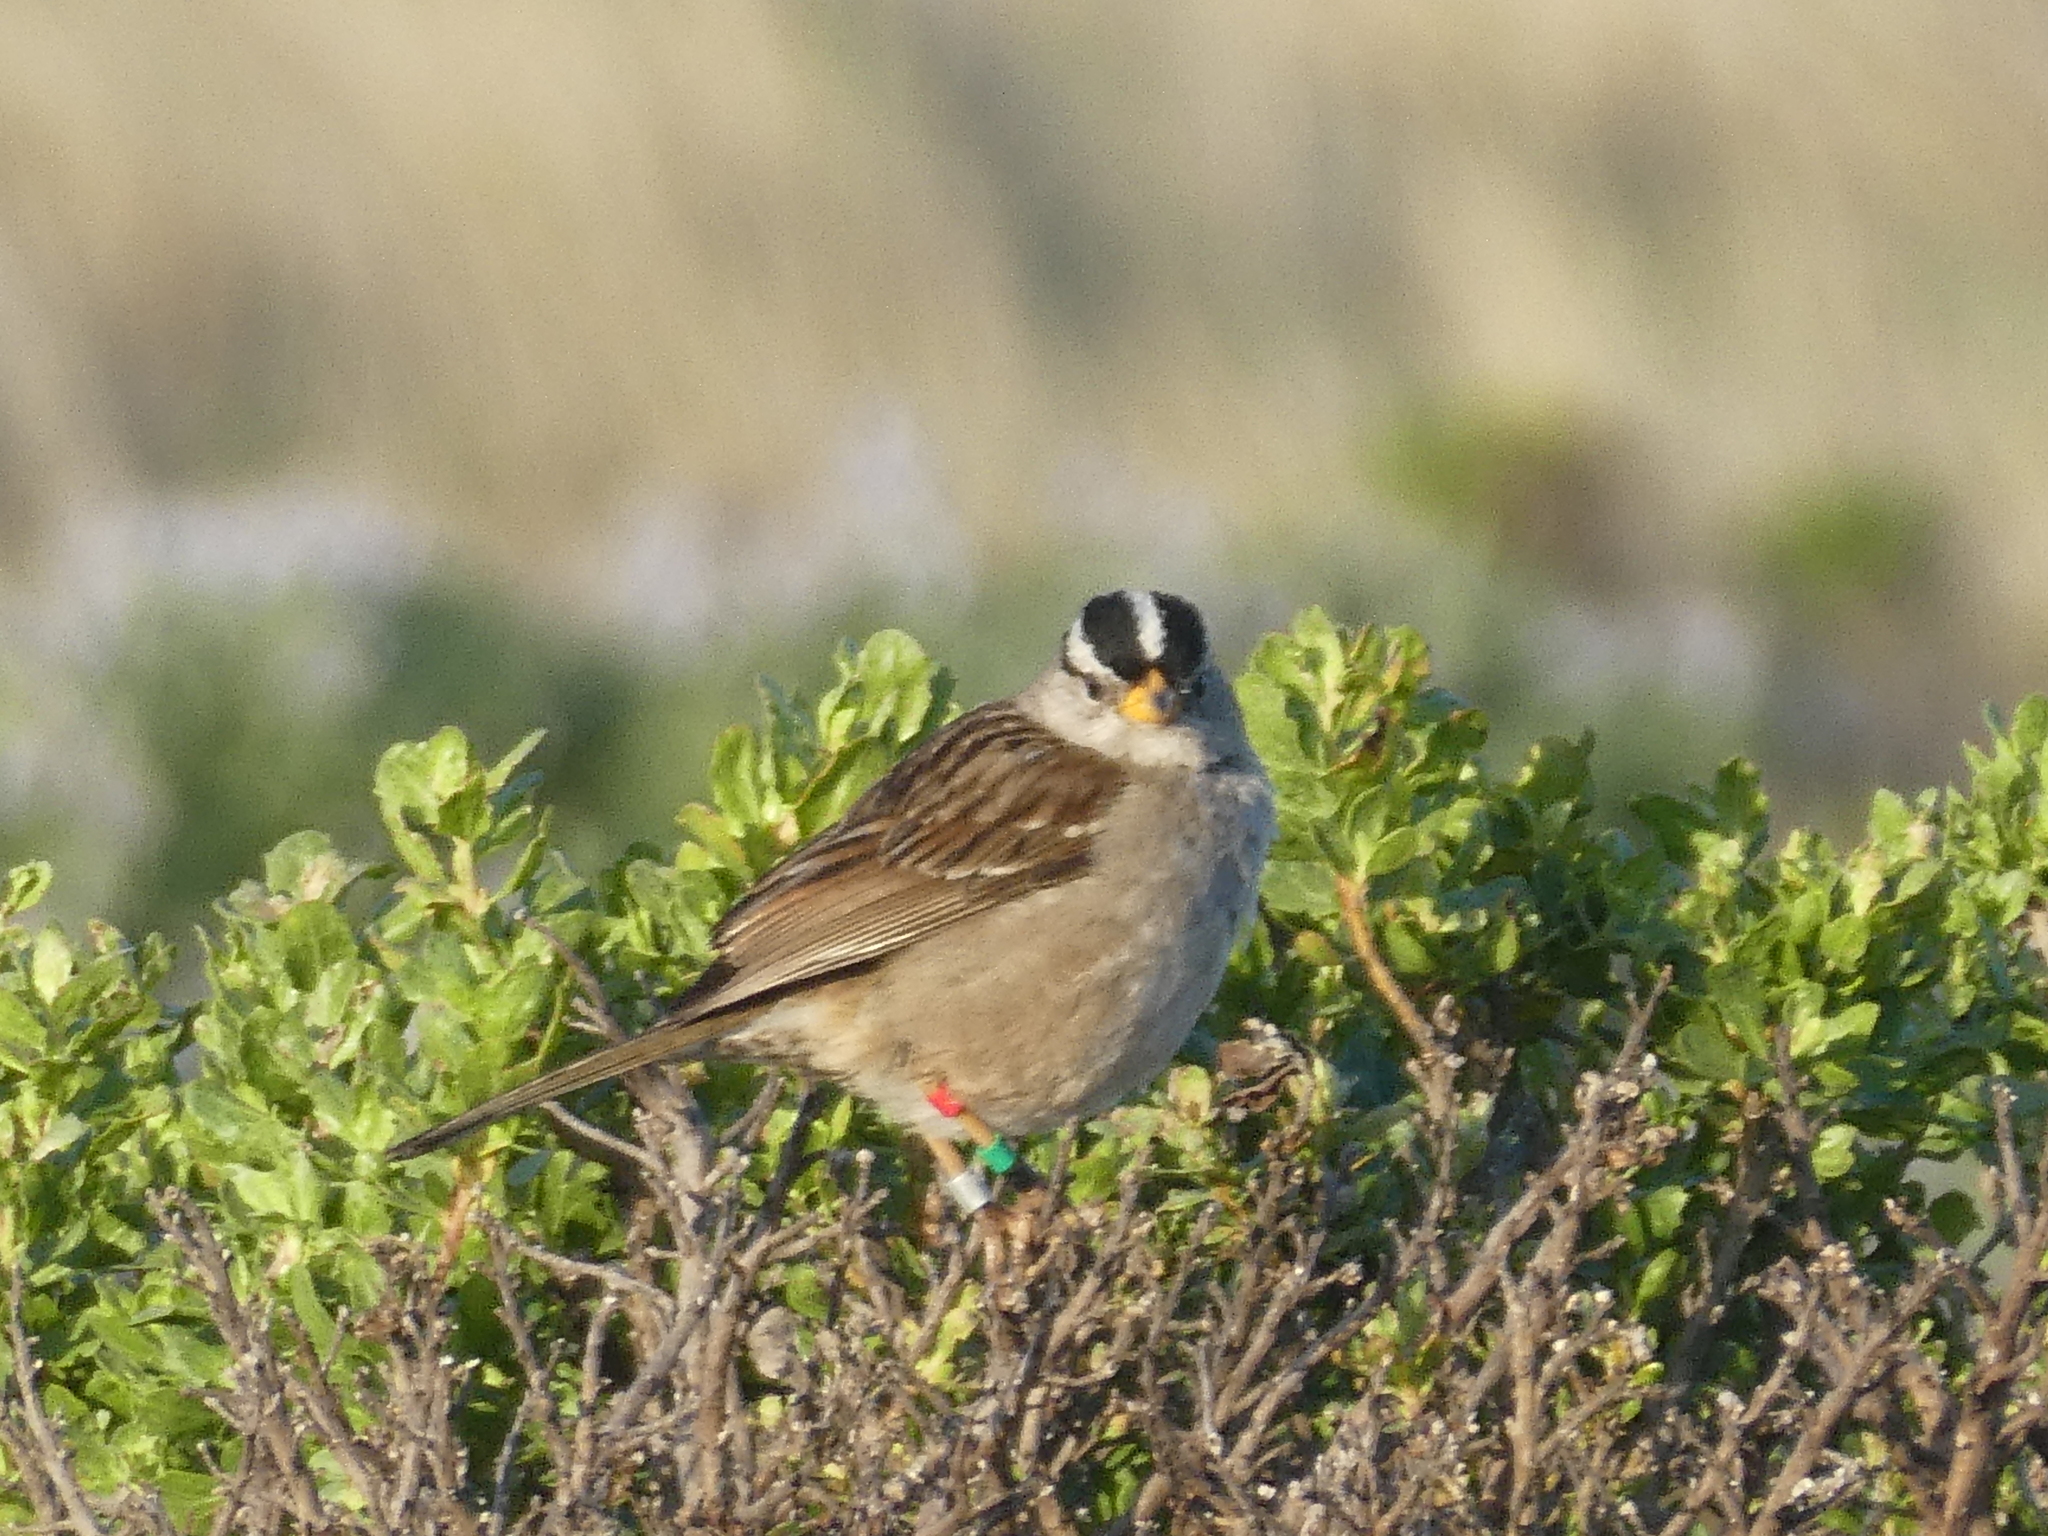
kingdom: Animalia
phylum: Chordata
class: Aves
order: Passeriformes
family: Passerellidae
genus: Zonotrichia
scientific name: Zonotrichia leucophrys
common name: White-crowned sparrow
